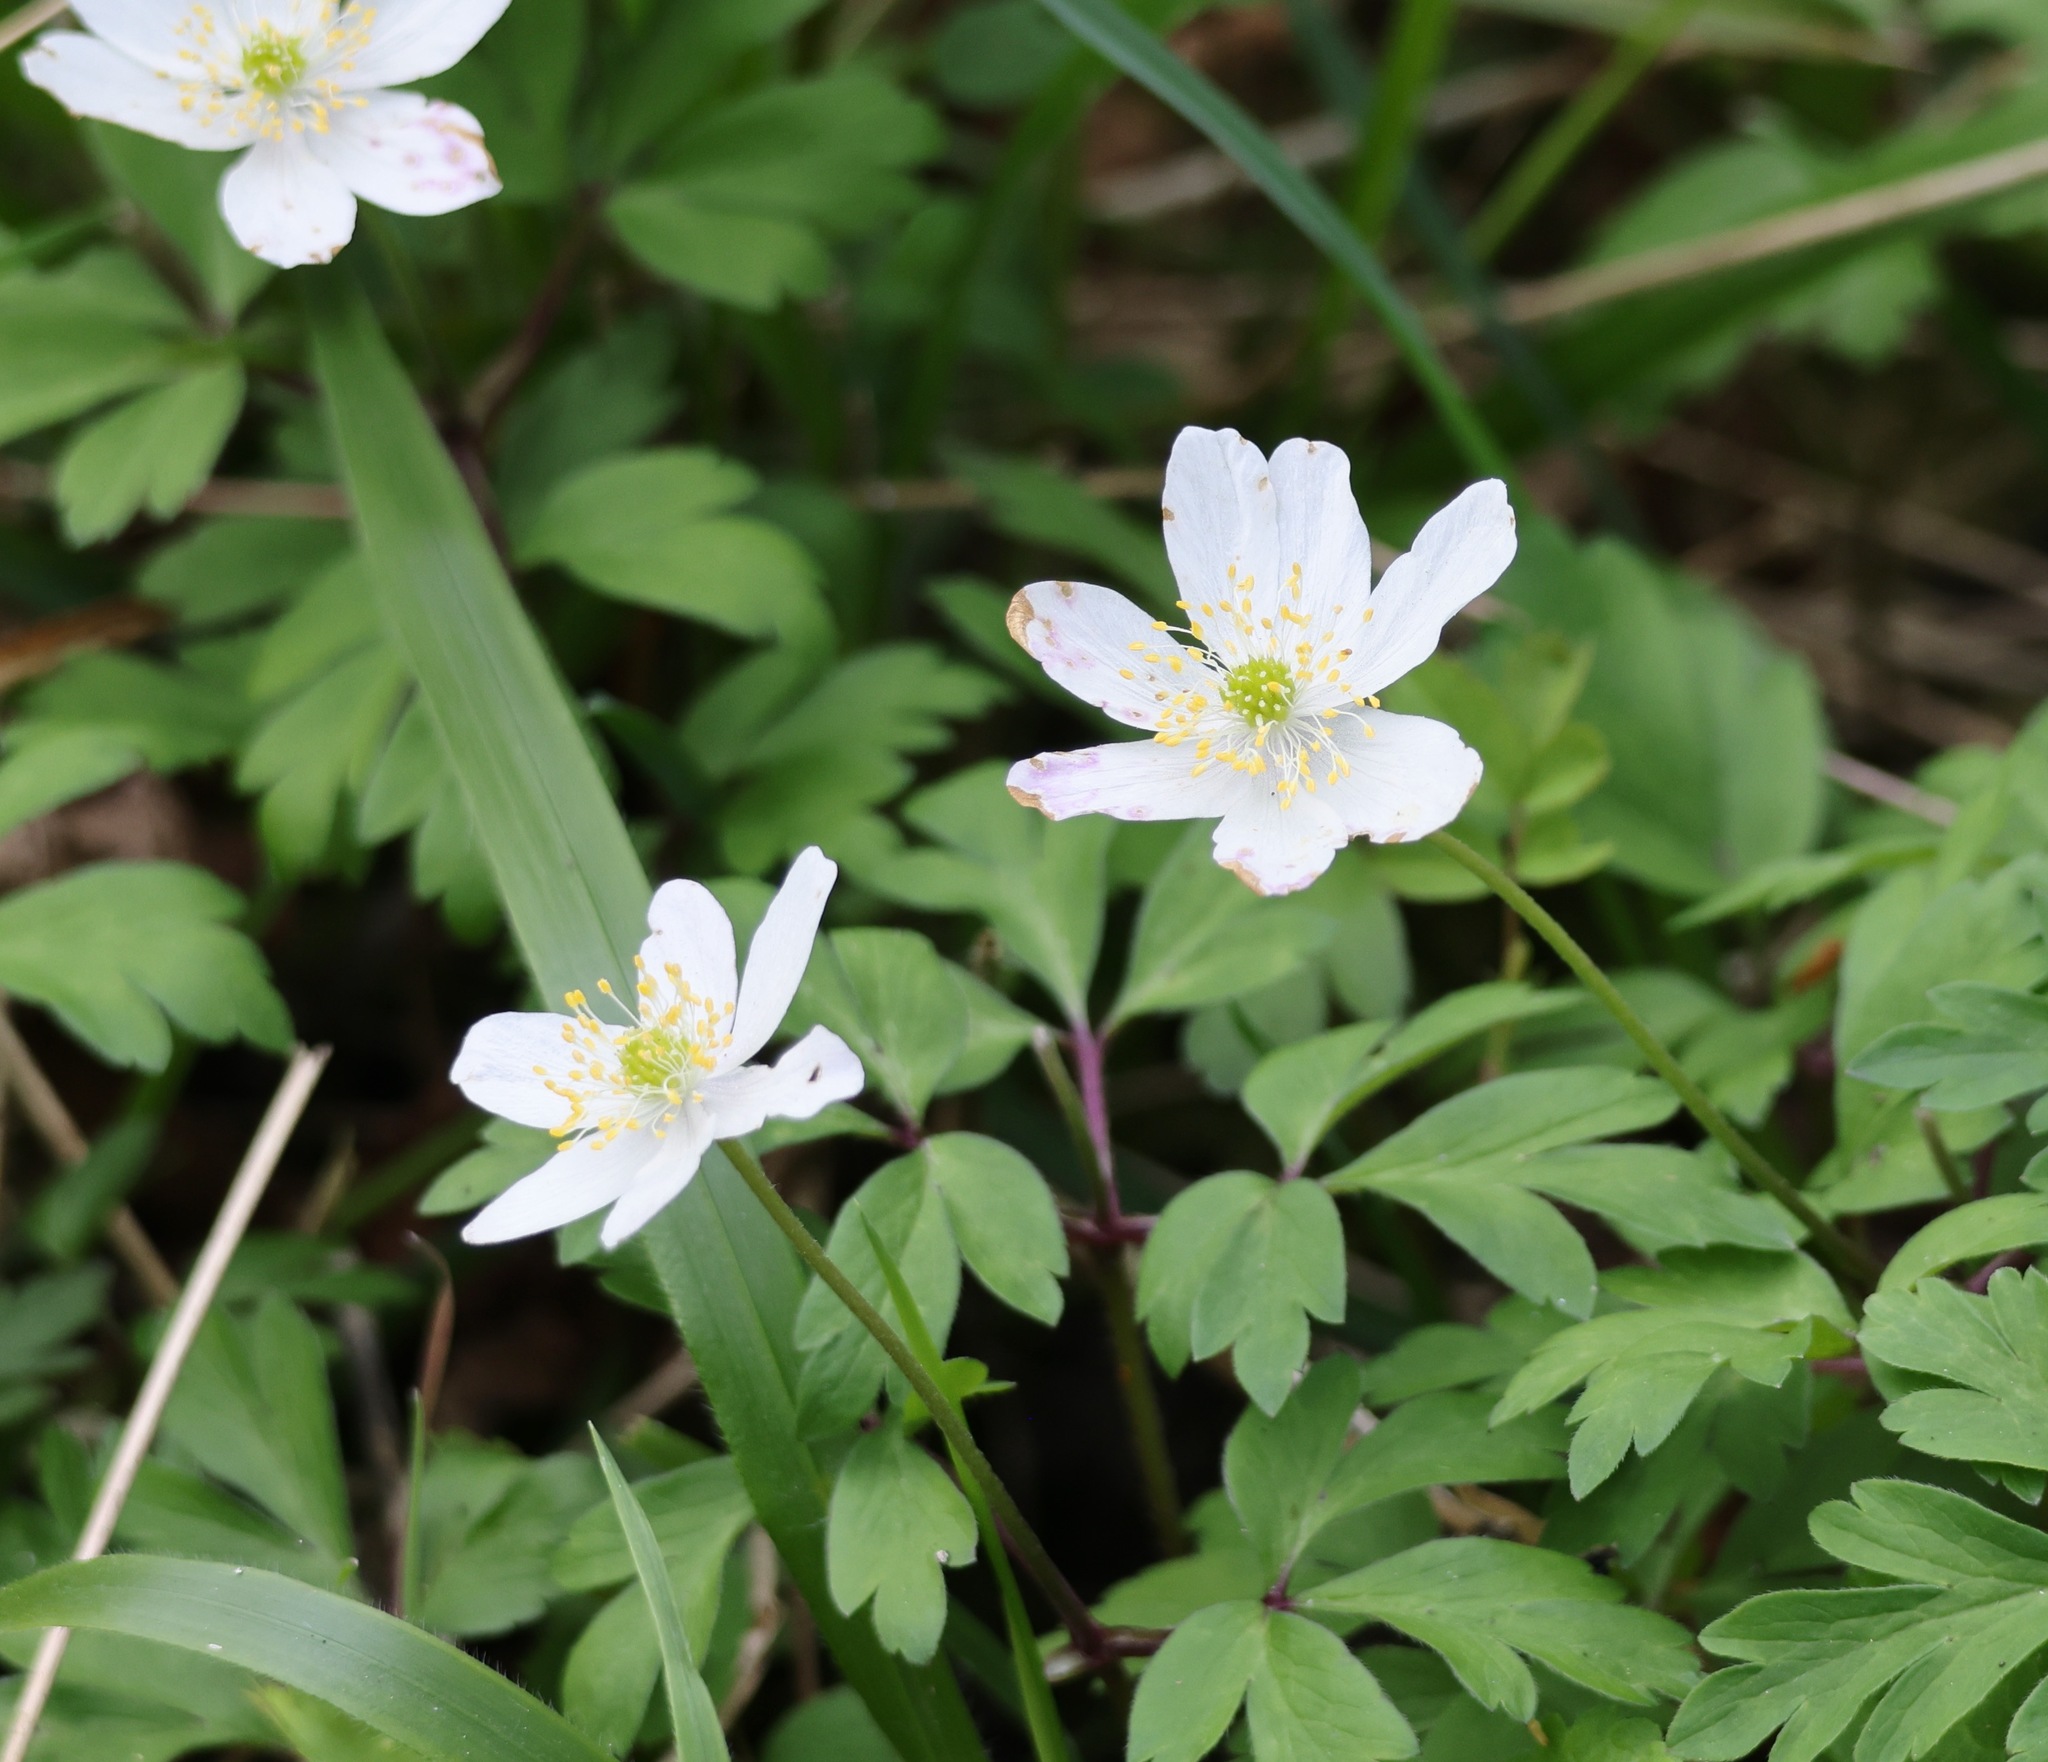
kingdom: Plantae
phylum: Tracheophyta
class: Magnoliopsida
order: Ranunculales
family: Ranunculaceae
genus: Anemone
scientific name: Anemone nemorosa
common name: Wood anemone
